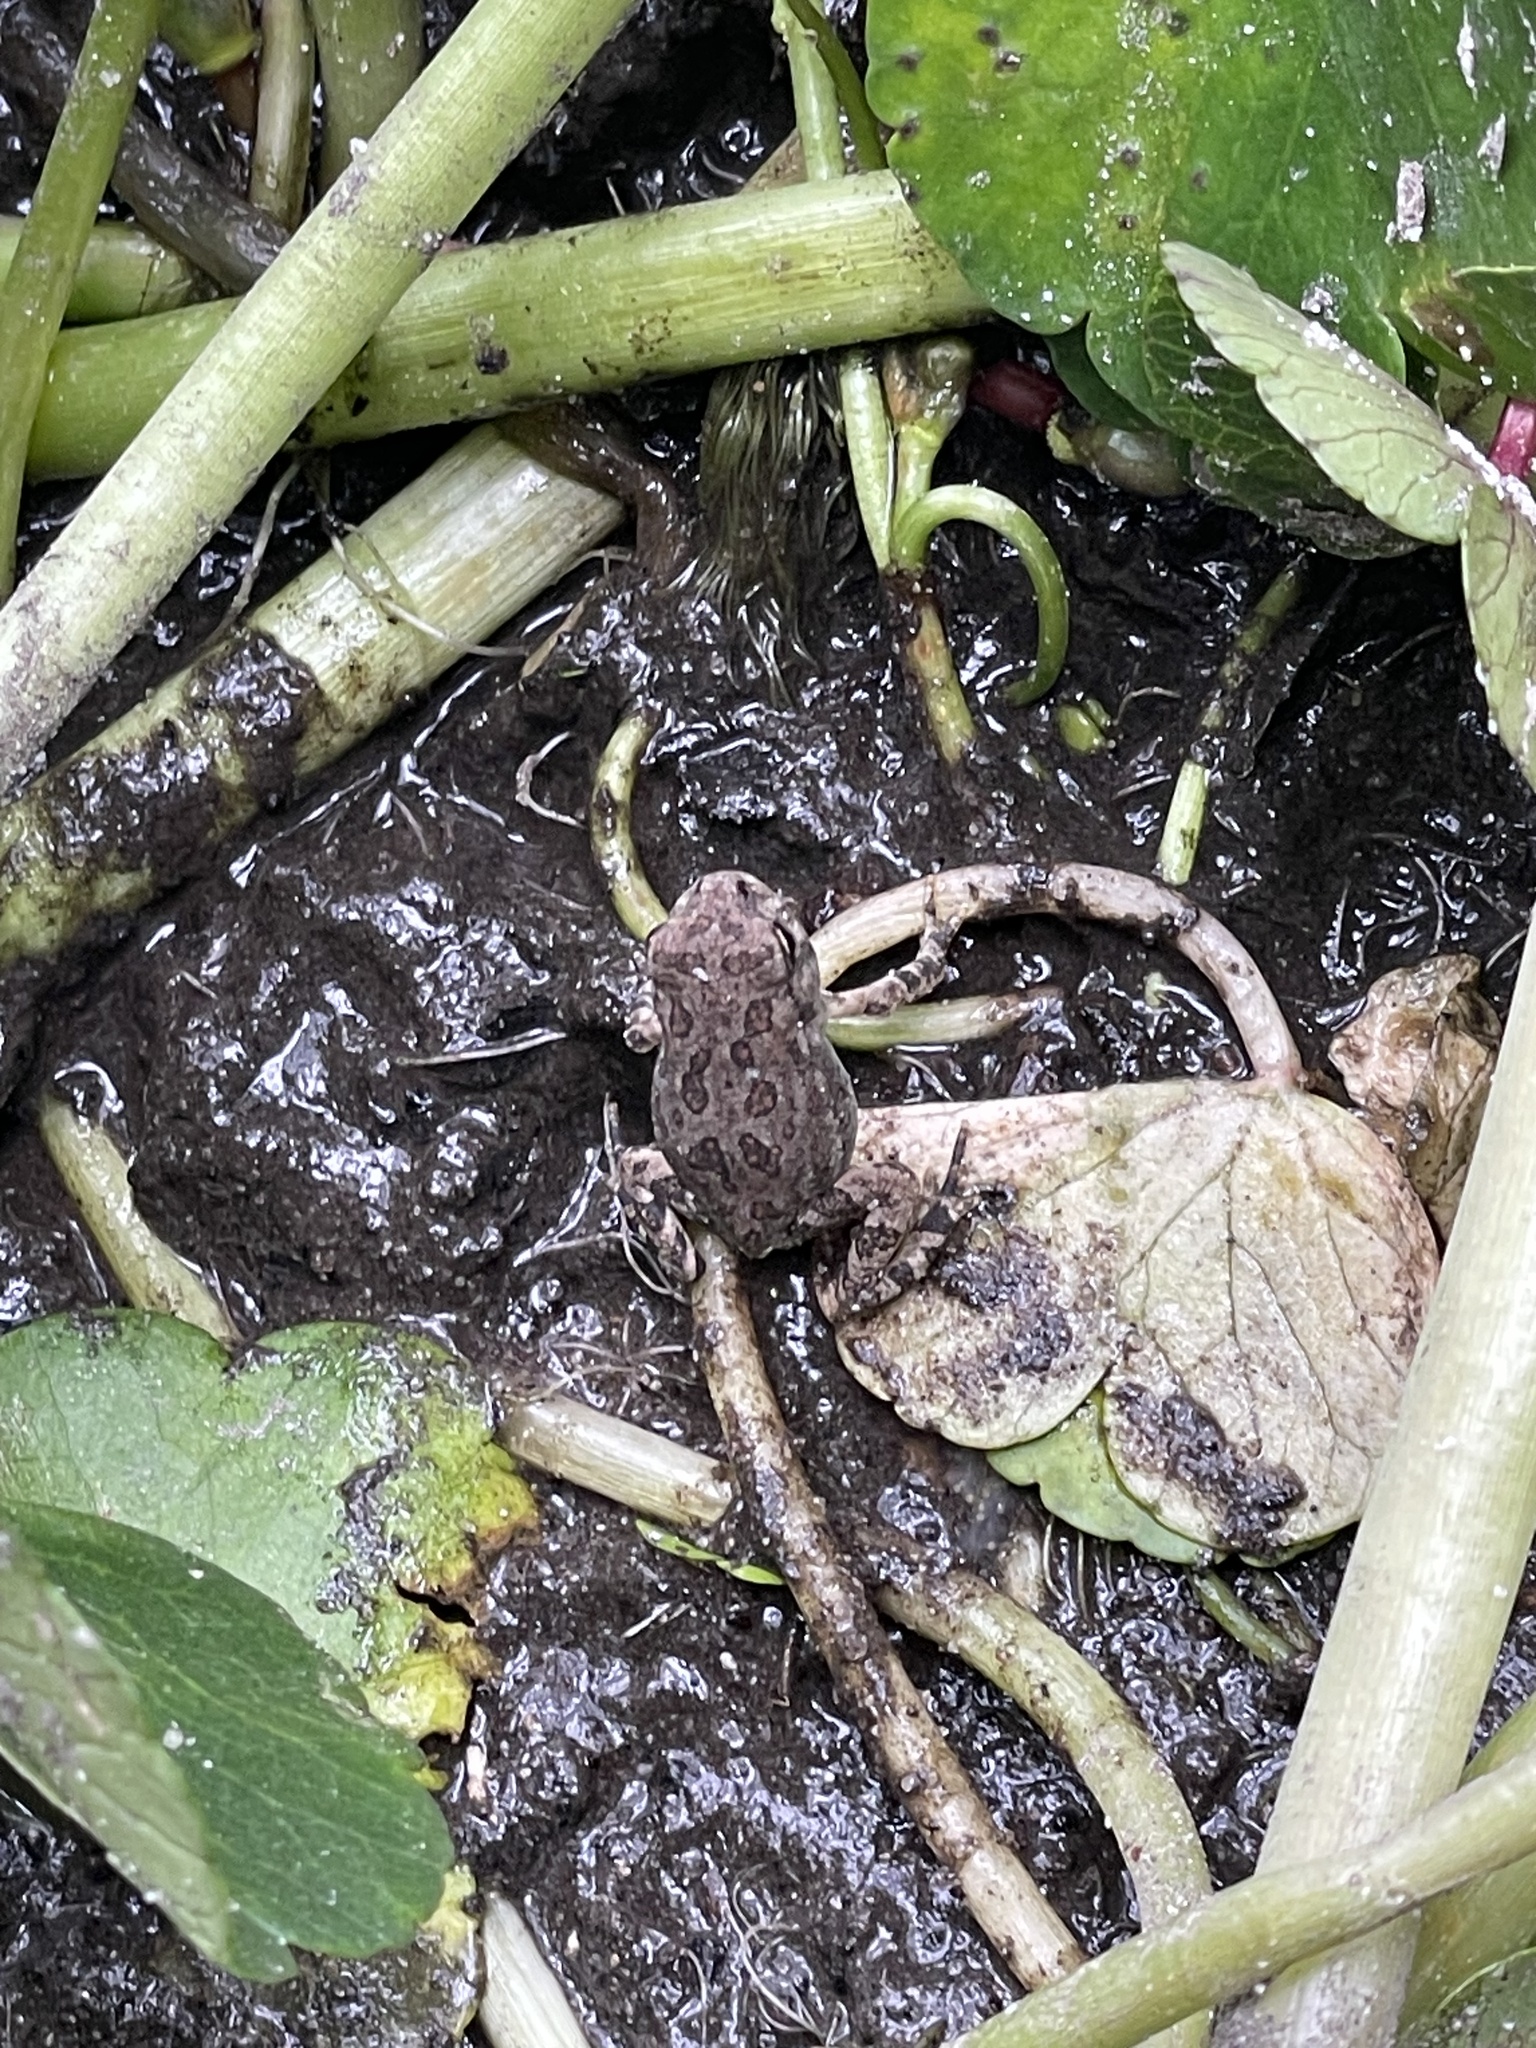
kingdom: Animalia
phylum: Chordata
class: Amphibia
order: Anura
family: Bufonidae
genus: Anaxyrus
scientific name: Anaxyrus fowleri
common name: Fowler's toad
